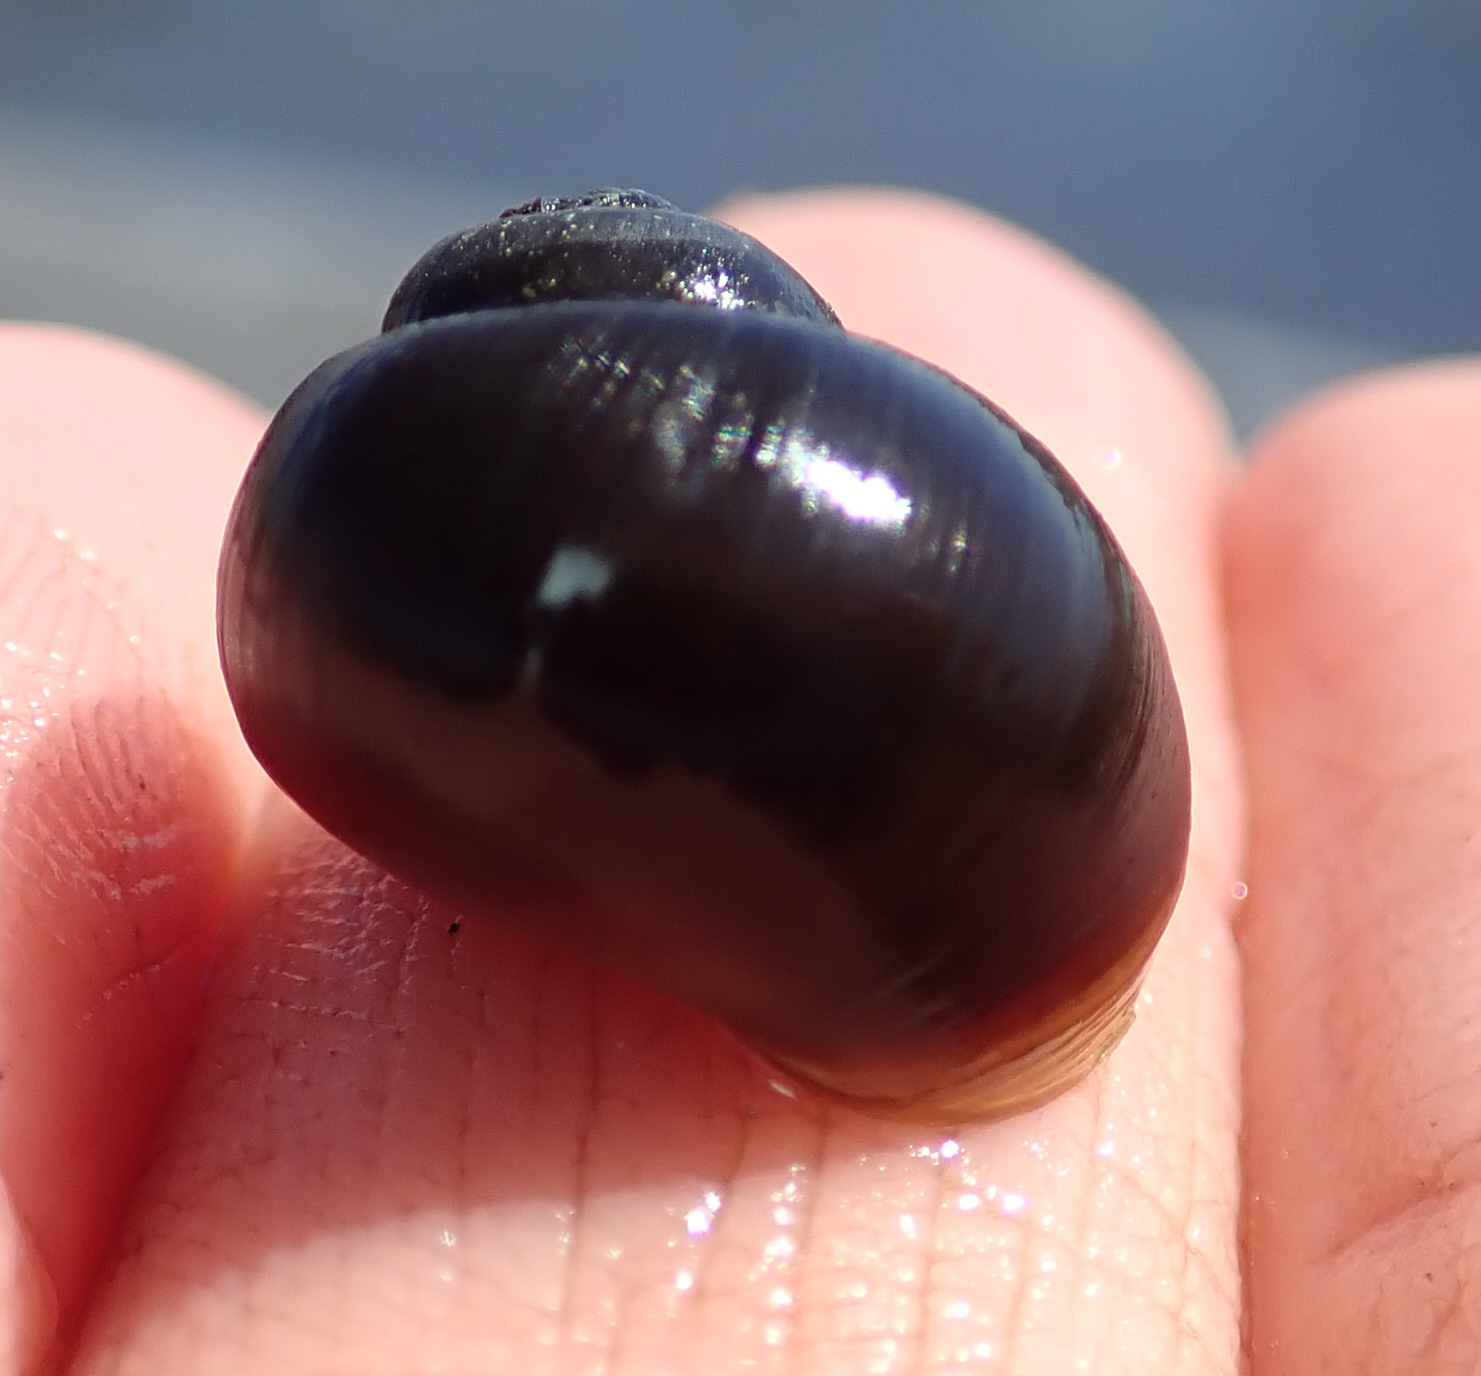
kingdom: Animalia
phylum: Mollusca
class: Gastropoda
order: Architaenioglossa
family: Ampullariidae
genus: Lanistes
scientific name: Lanistes ovum
